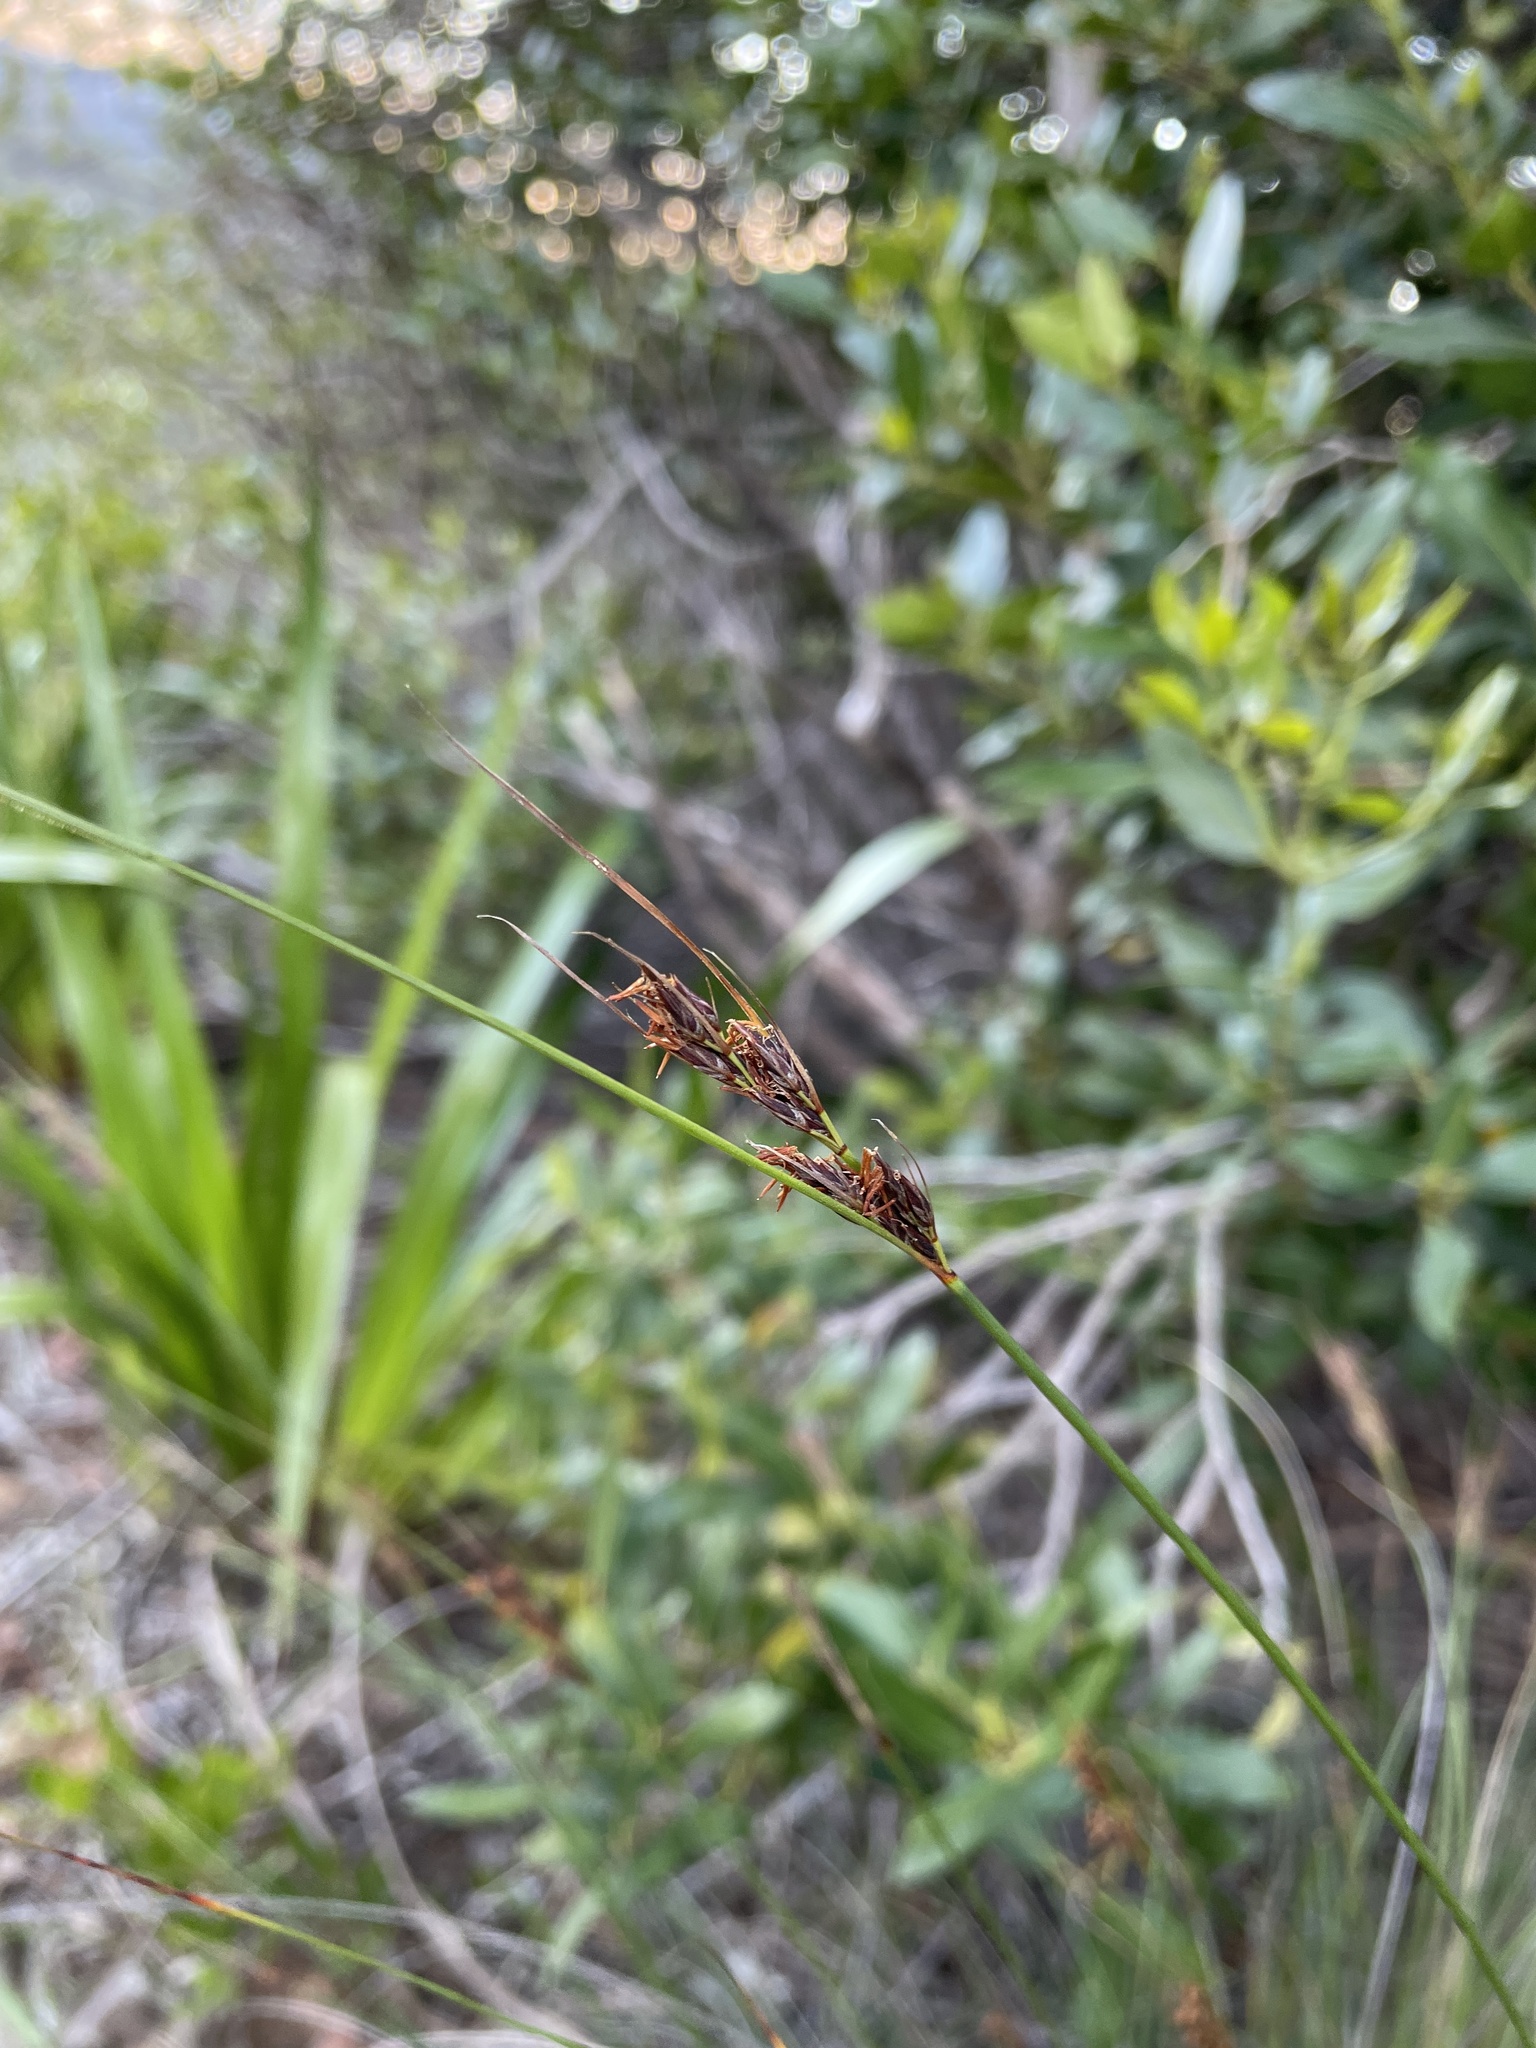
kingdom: Plantae
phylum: Tracheophyta
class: Liliopsida
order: Poales
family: Cyperaceae
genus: Schoenus
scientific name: Schoenus cuspidatus
